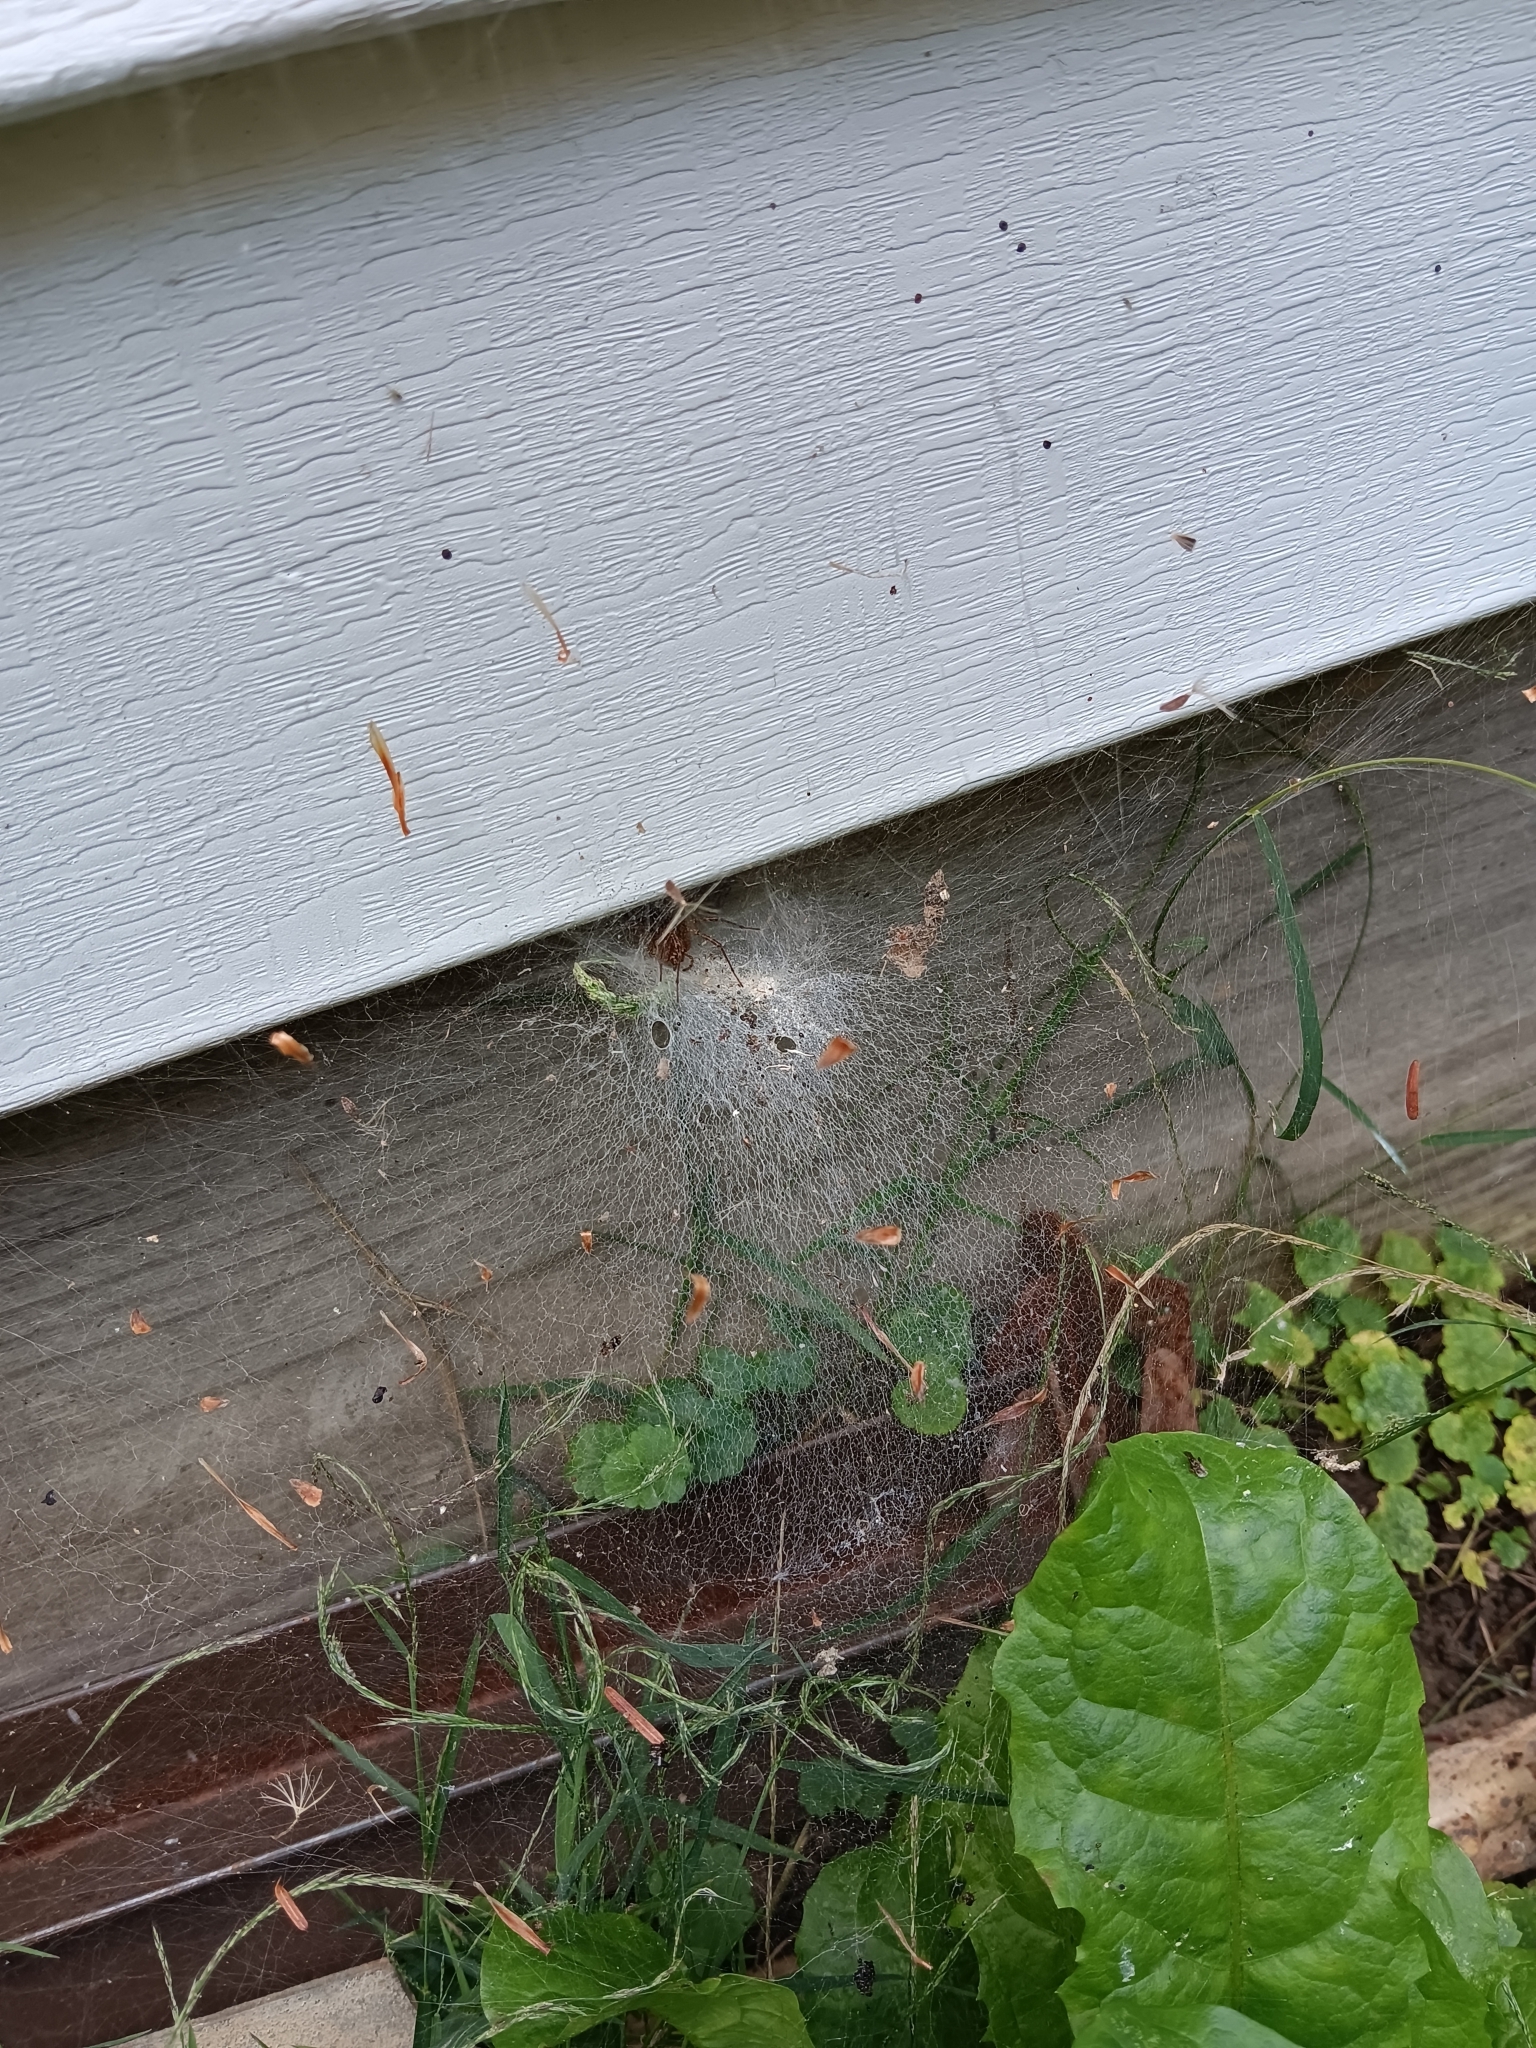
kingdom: Animalia
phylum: Arthropoda
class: Arachnida
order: Araneae
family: Agelenidae
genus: Agelenopsis
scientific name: Agelenopsis
